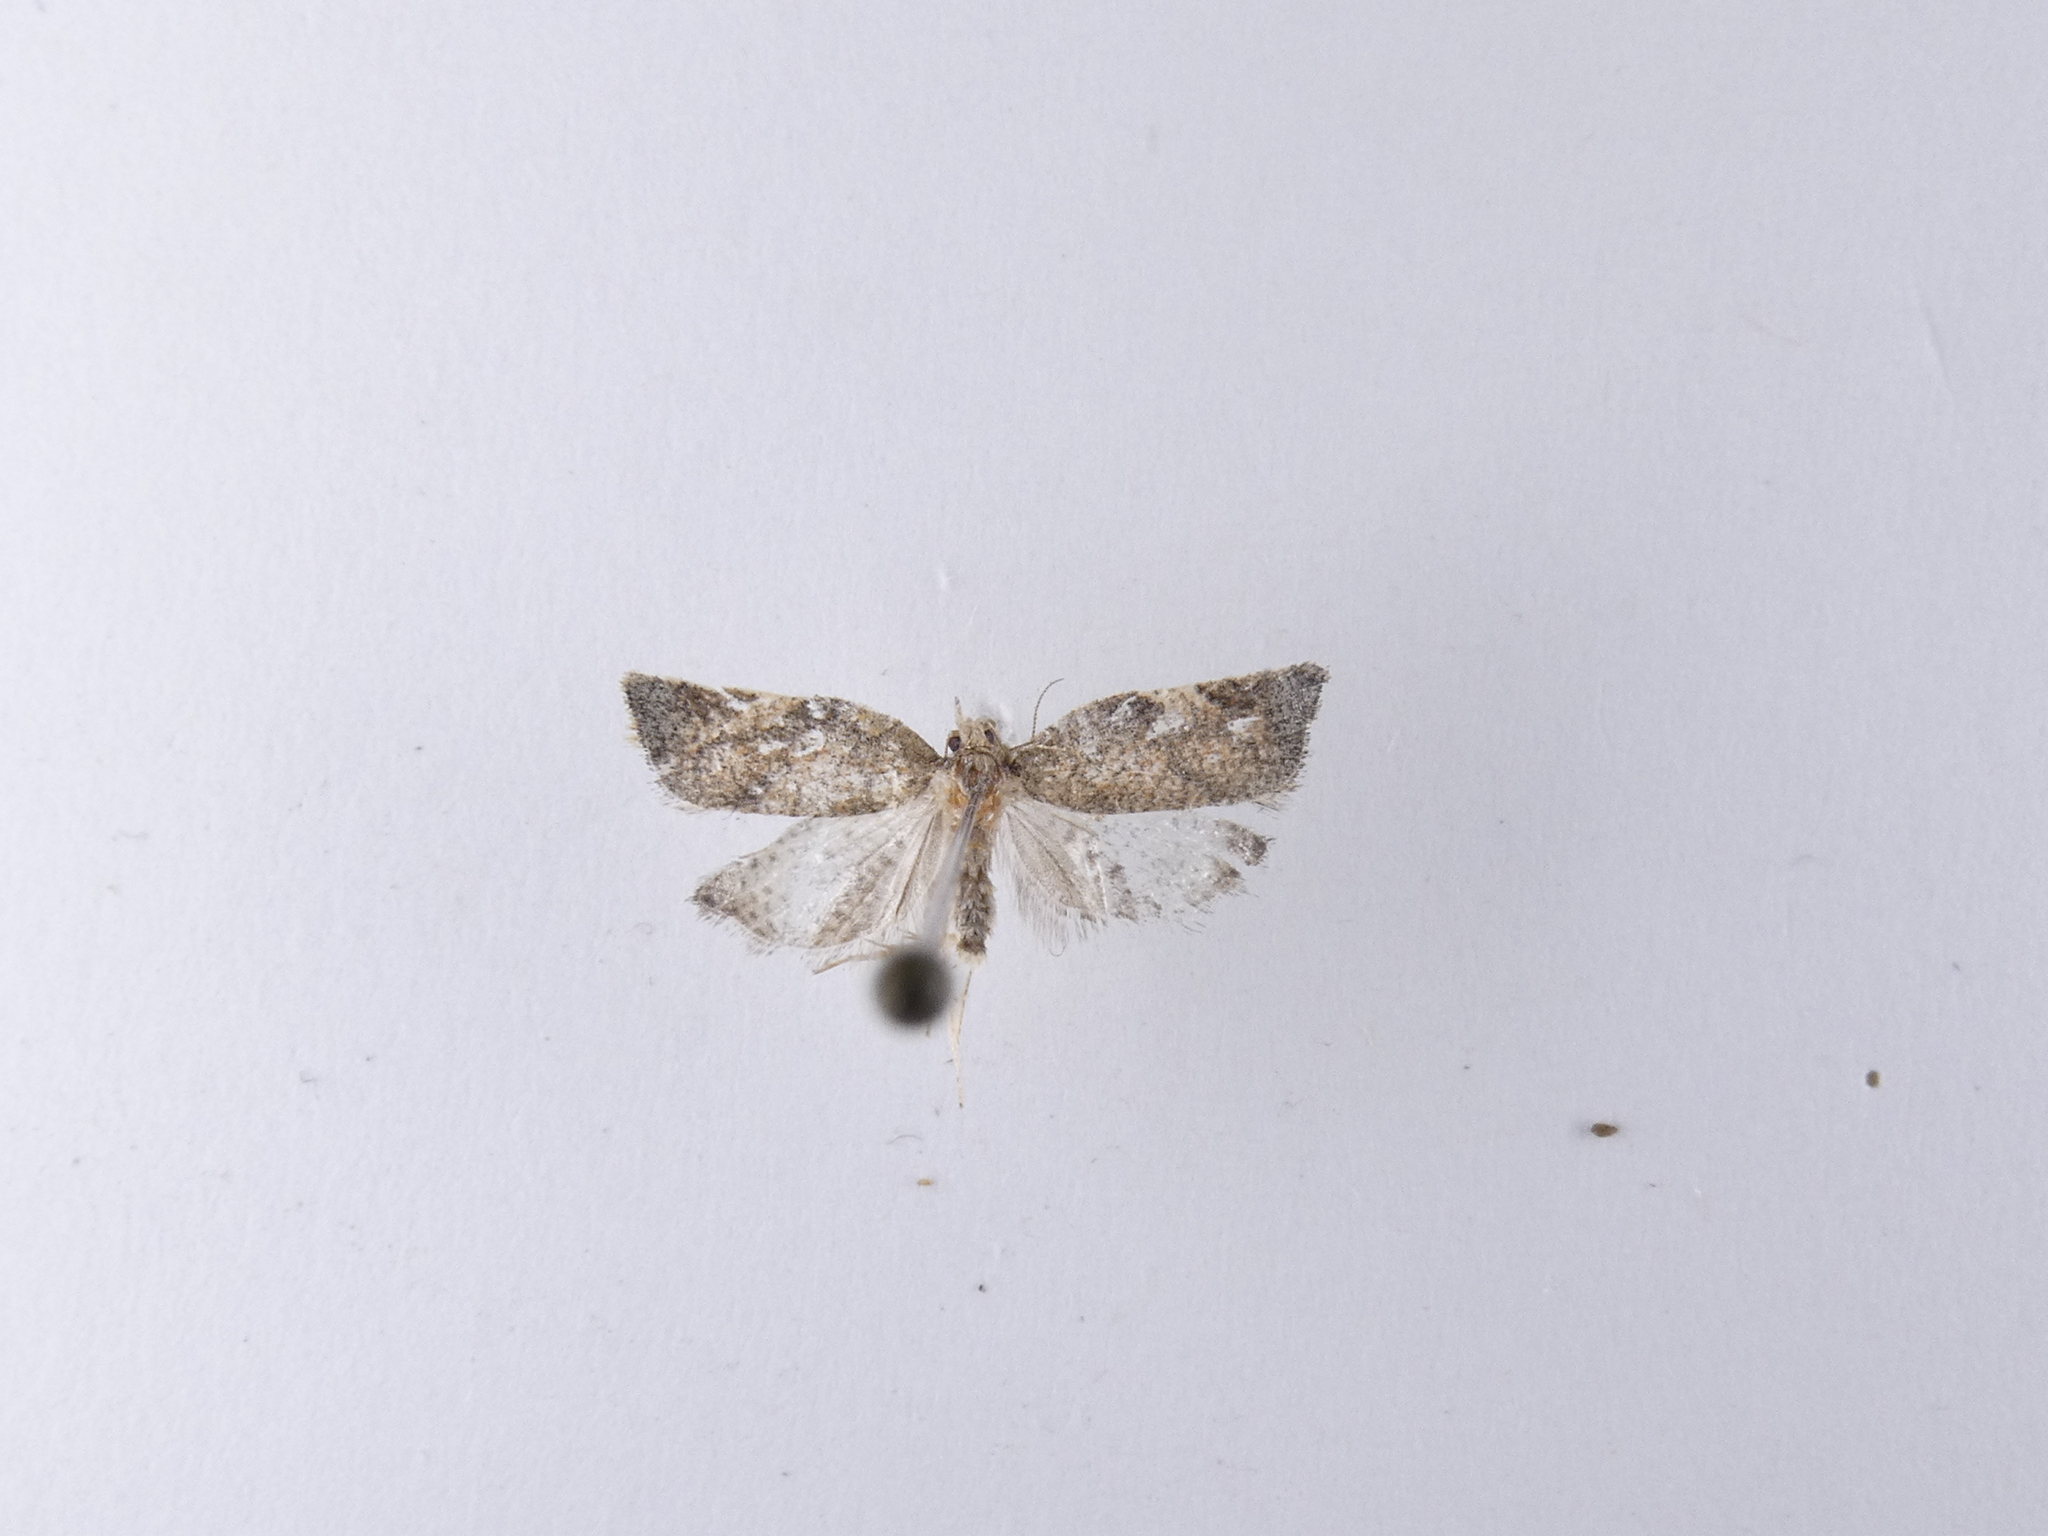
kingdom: Animalia
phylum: Arthropoda
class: Insecta
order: Lepidoptera
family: Tortricidae
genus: Catamacta
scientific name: Catamacta gavisana
